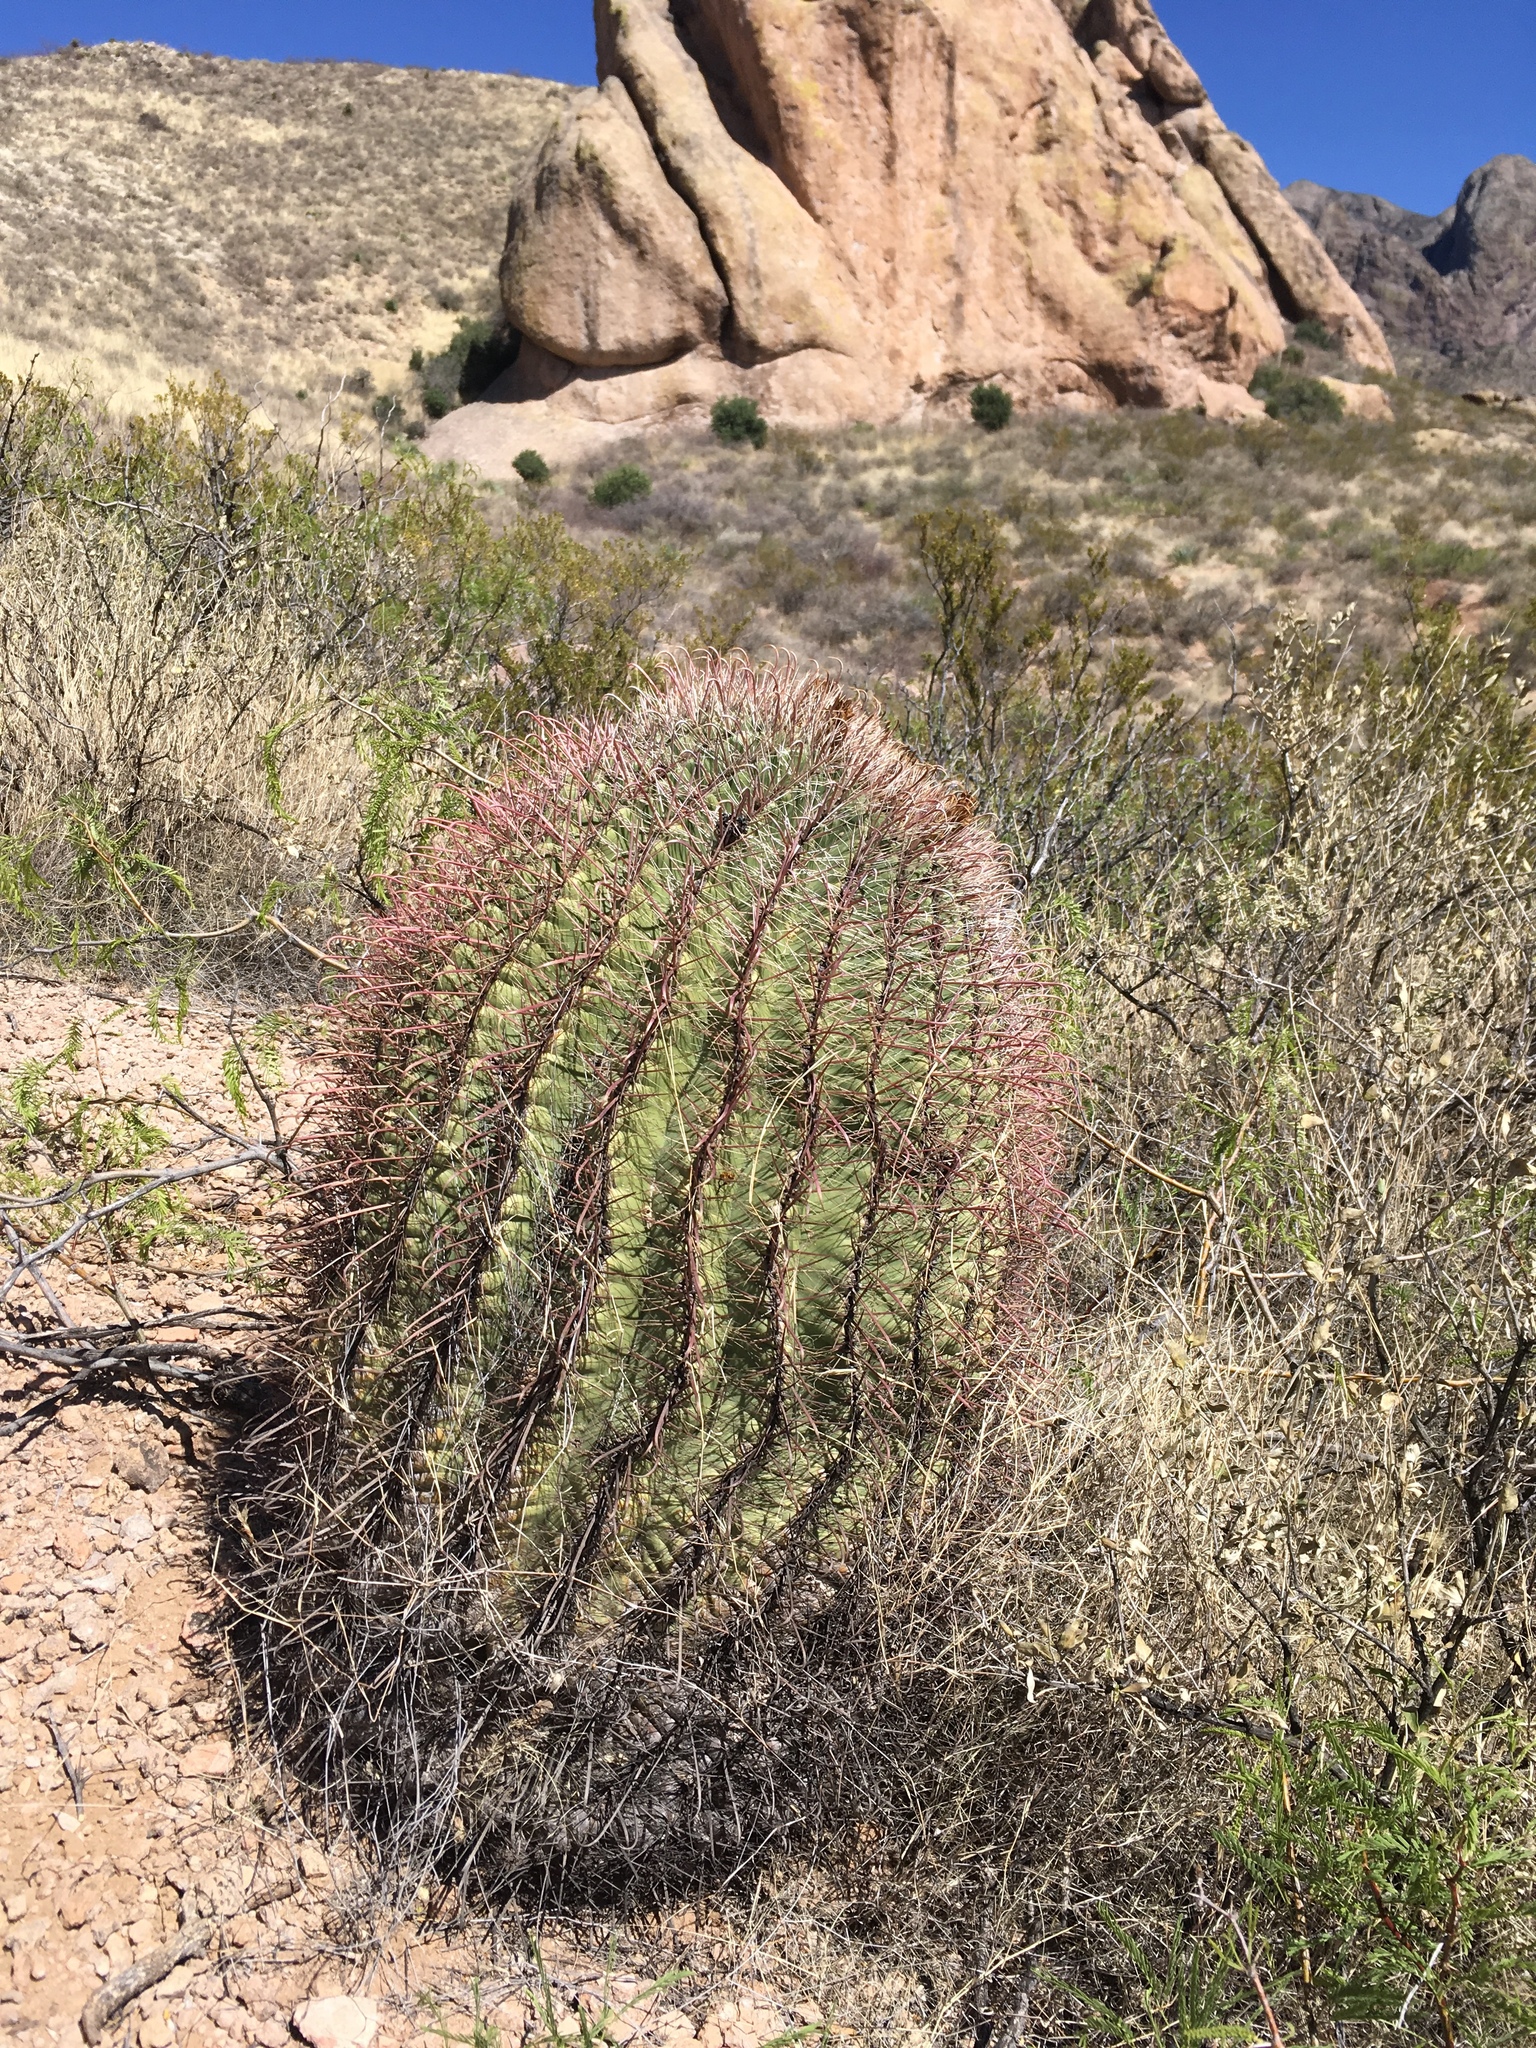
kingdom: Plantae
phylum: Tracheophyta
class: Magnoliopsida
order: Caryophyllales
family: Cactaceae
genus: Ferocactus
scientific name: Ferocactus wislizeni
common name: Candy barrel cactus
